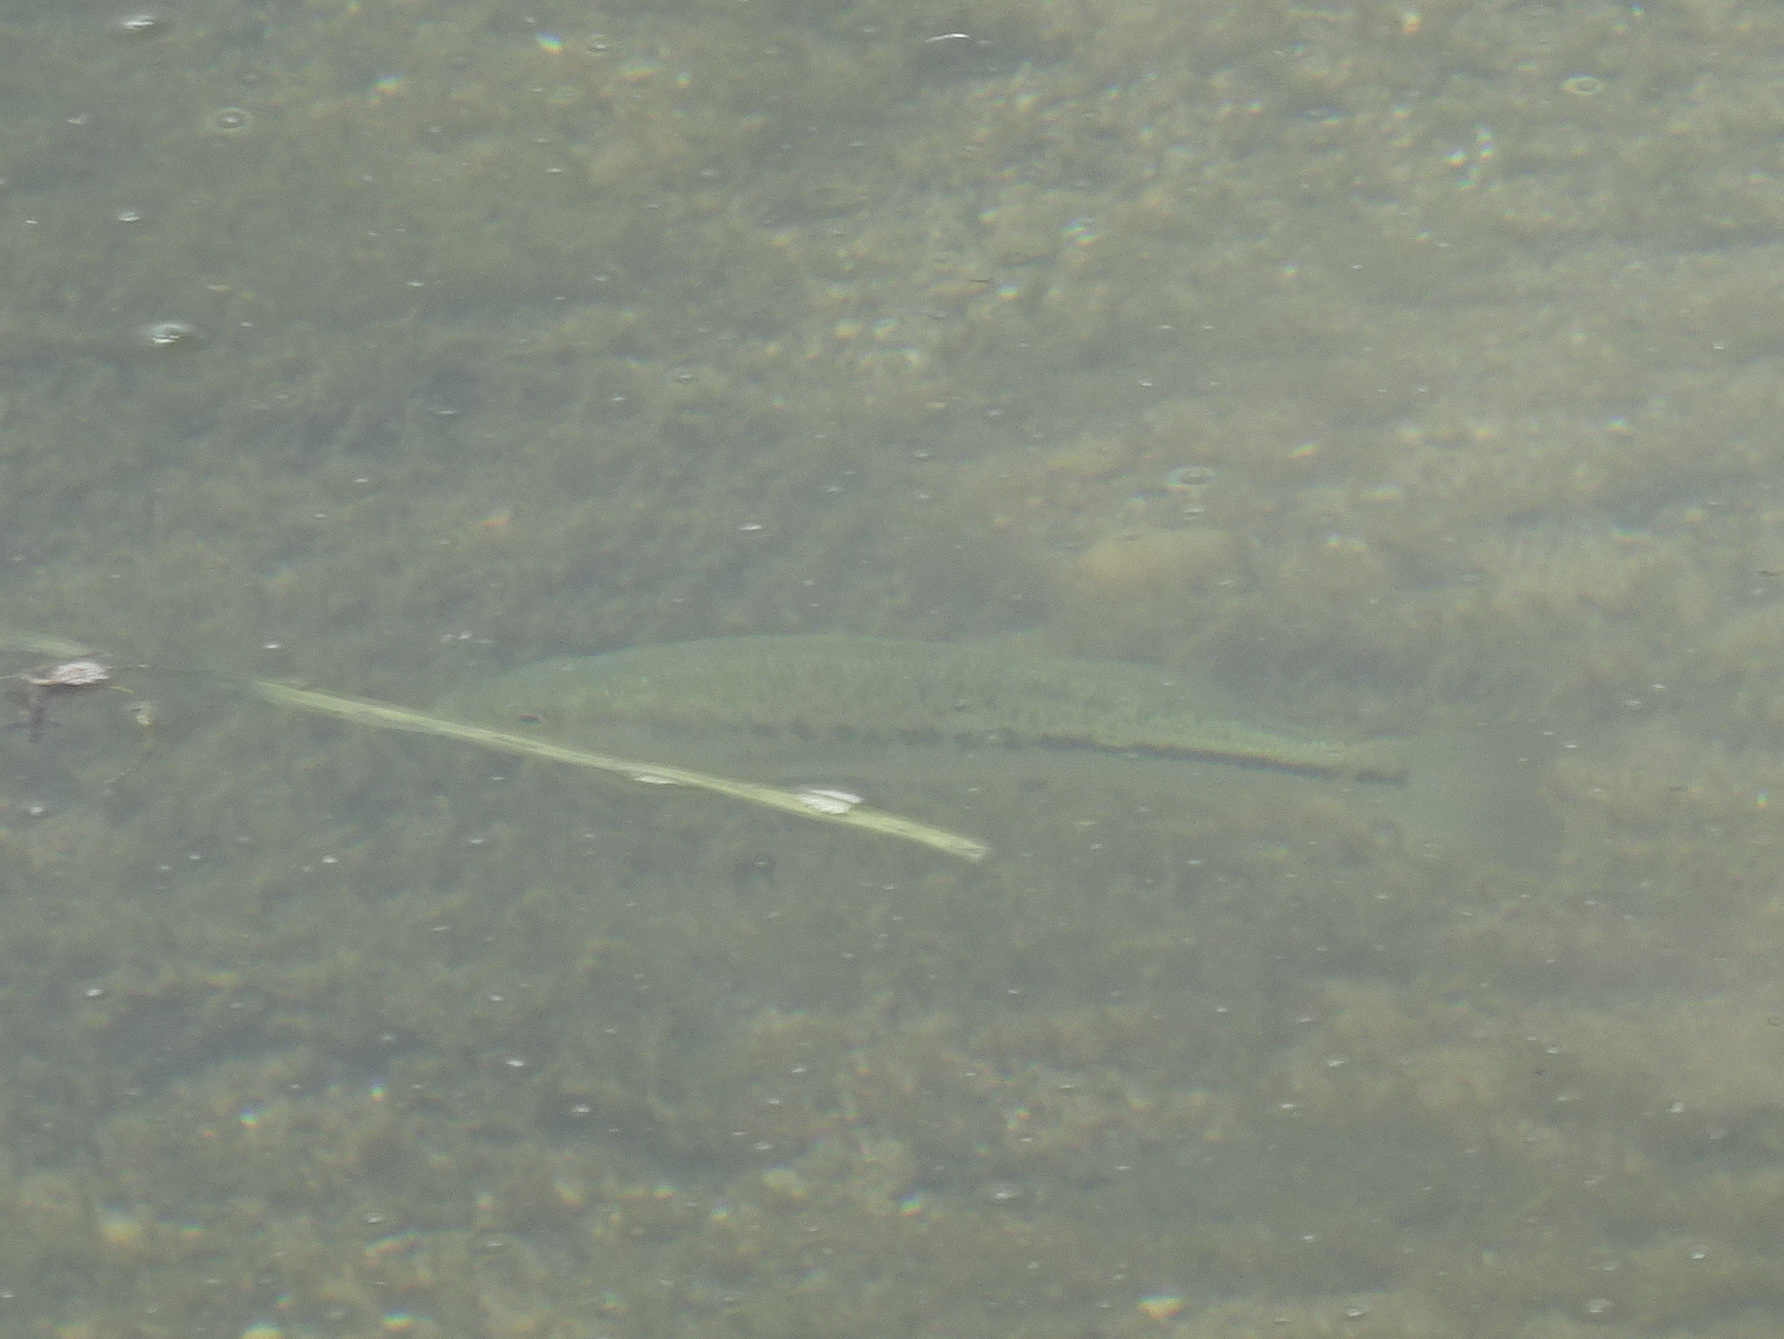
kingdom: Animalia
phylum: Chordata
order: Perciformes
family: Centrarchidae
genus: Micropterus
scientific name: Micropterus
